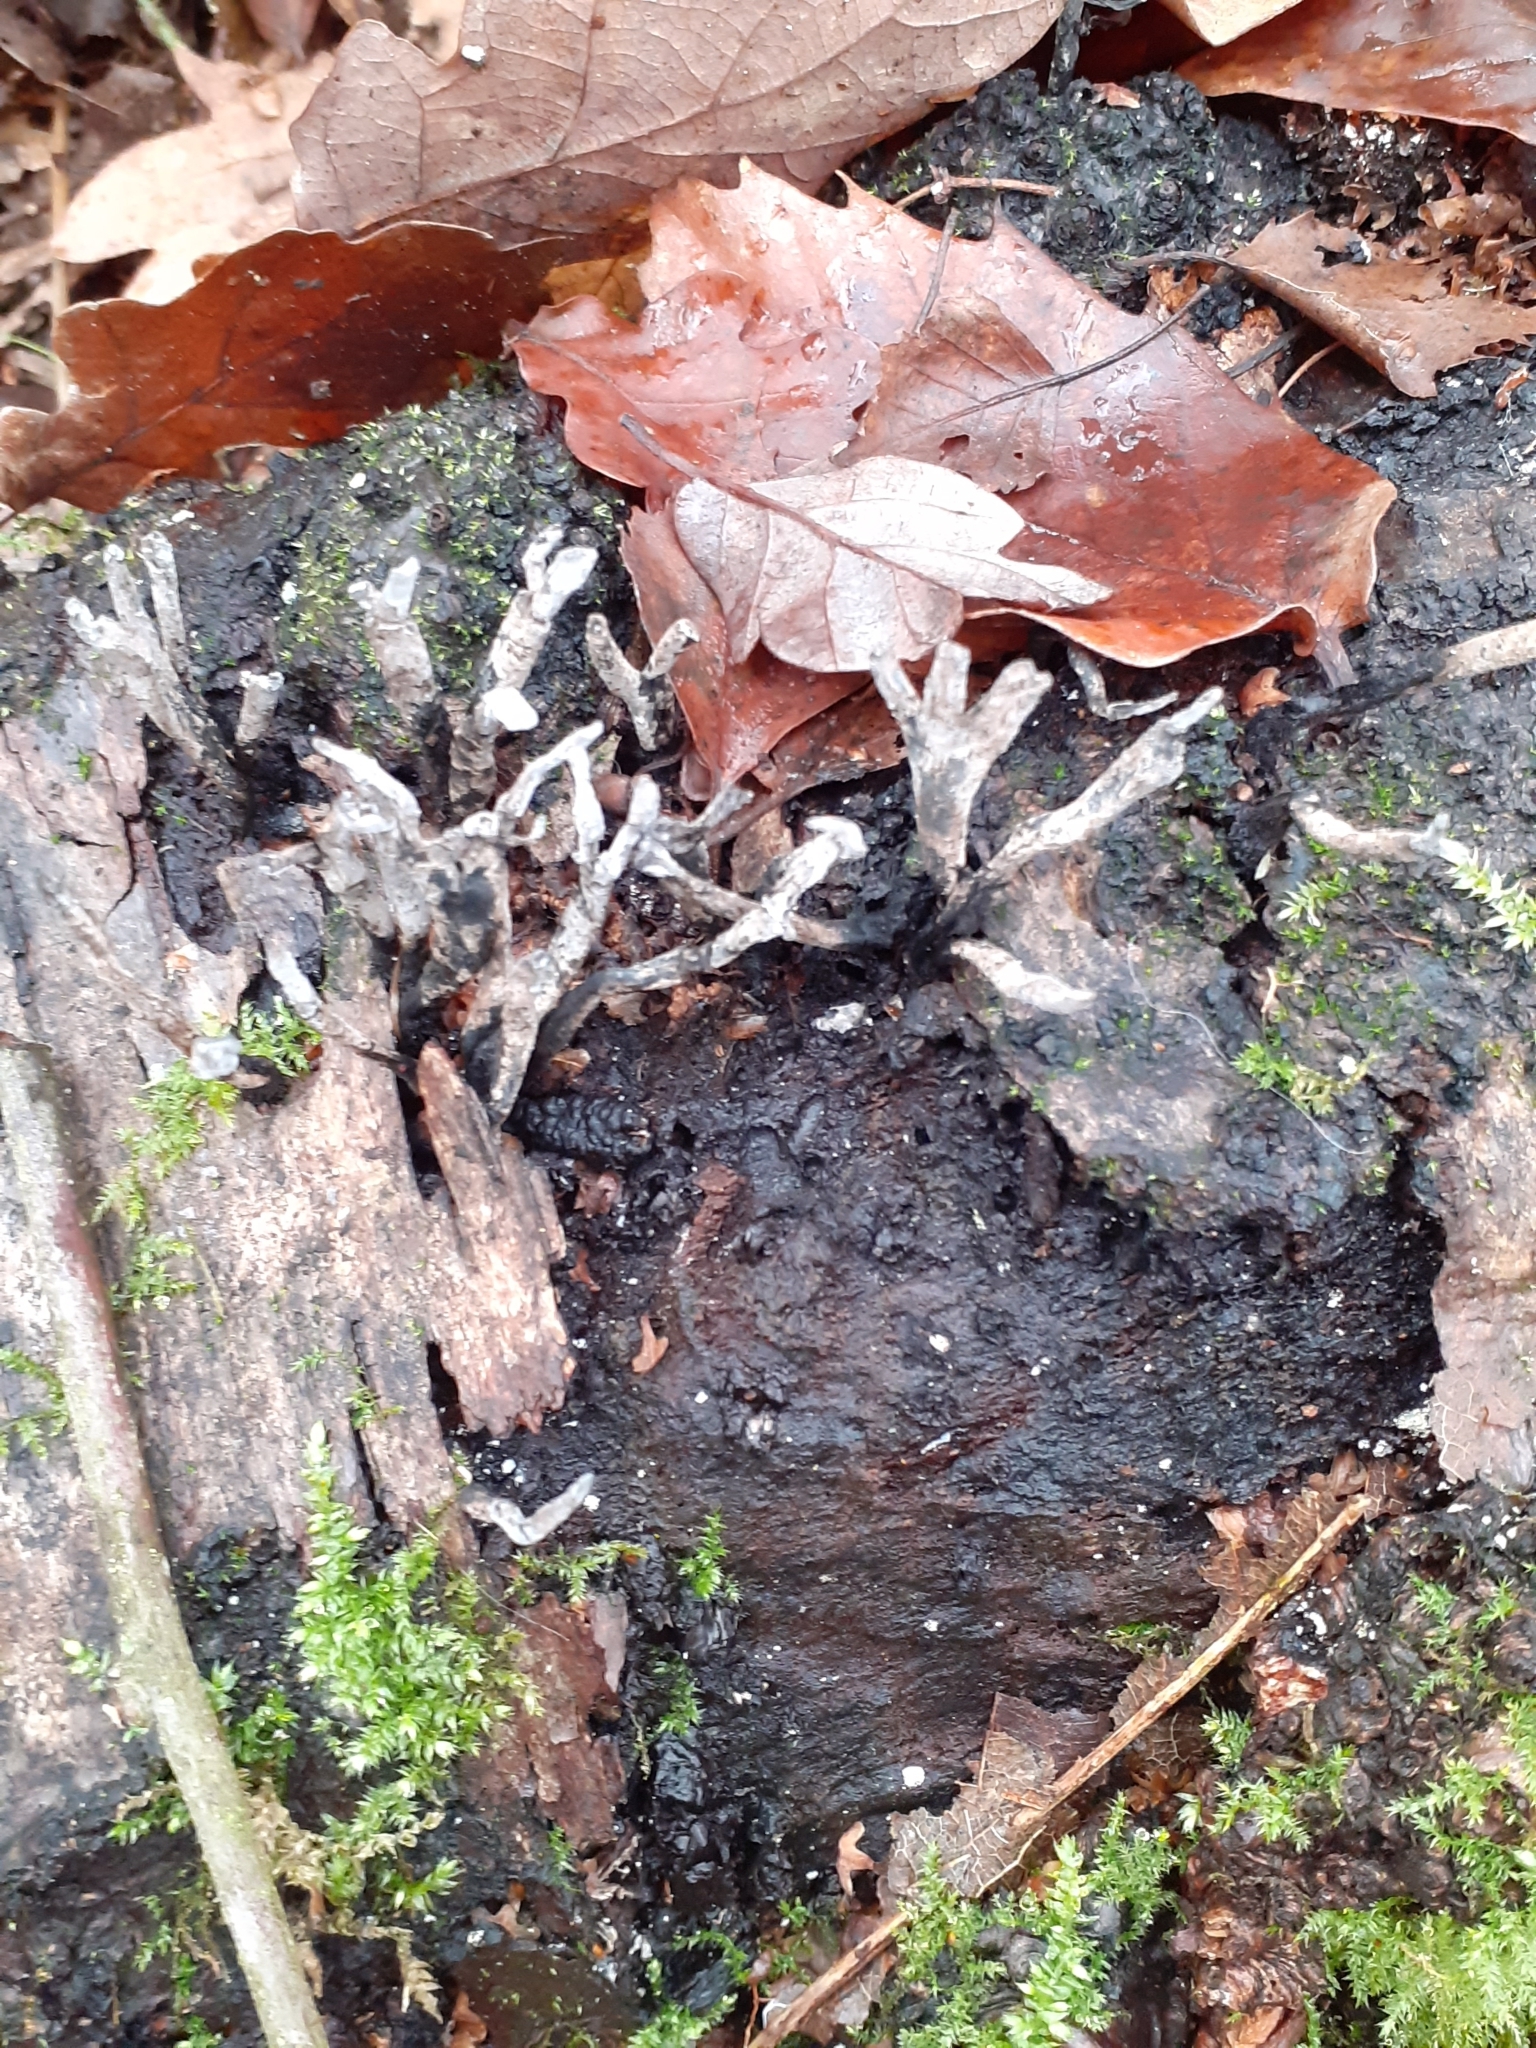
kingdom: Fungi
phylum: Ascomycota
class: Sordariomycetes
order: Xylariales
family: Xylariaceae
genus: Xylaria
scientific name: Xylaria hypoxylon
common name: Candle-snuff fungus
